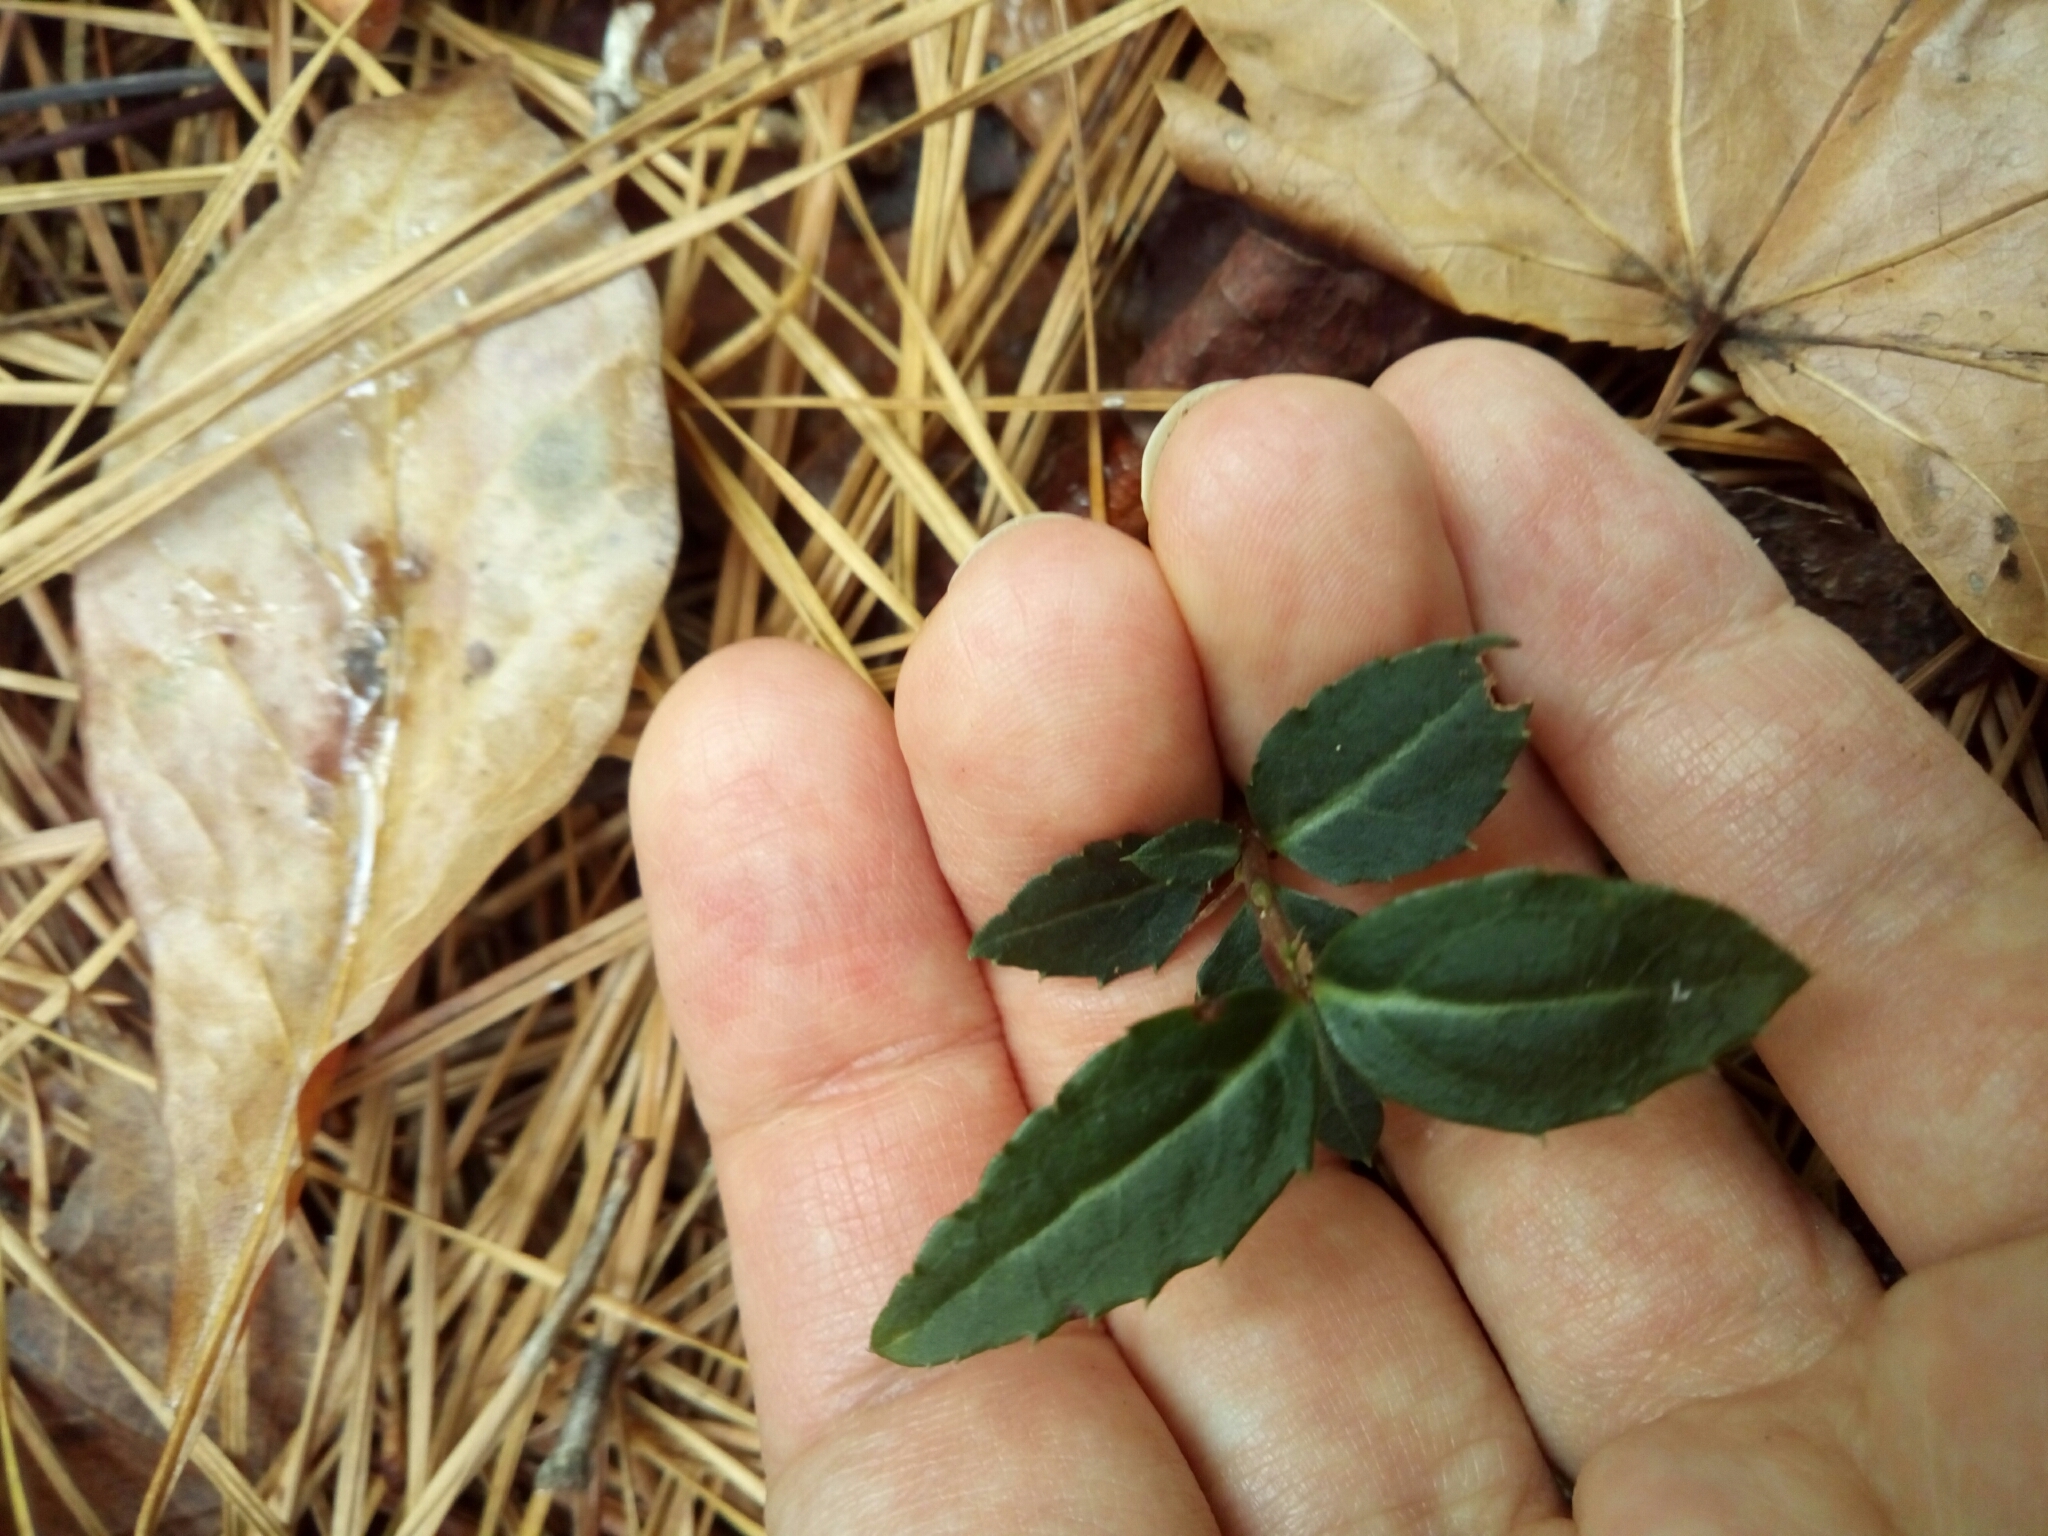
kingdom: Plantae
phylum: Tracheophyta
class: Magnoliopsida
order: Ericales
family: Ericaceae
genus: Chimaphila
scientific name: Chimaphila maculata
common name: Spotted pipsissewa
